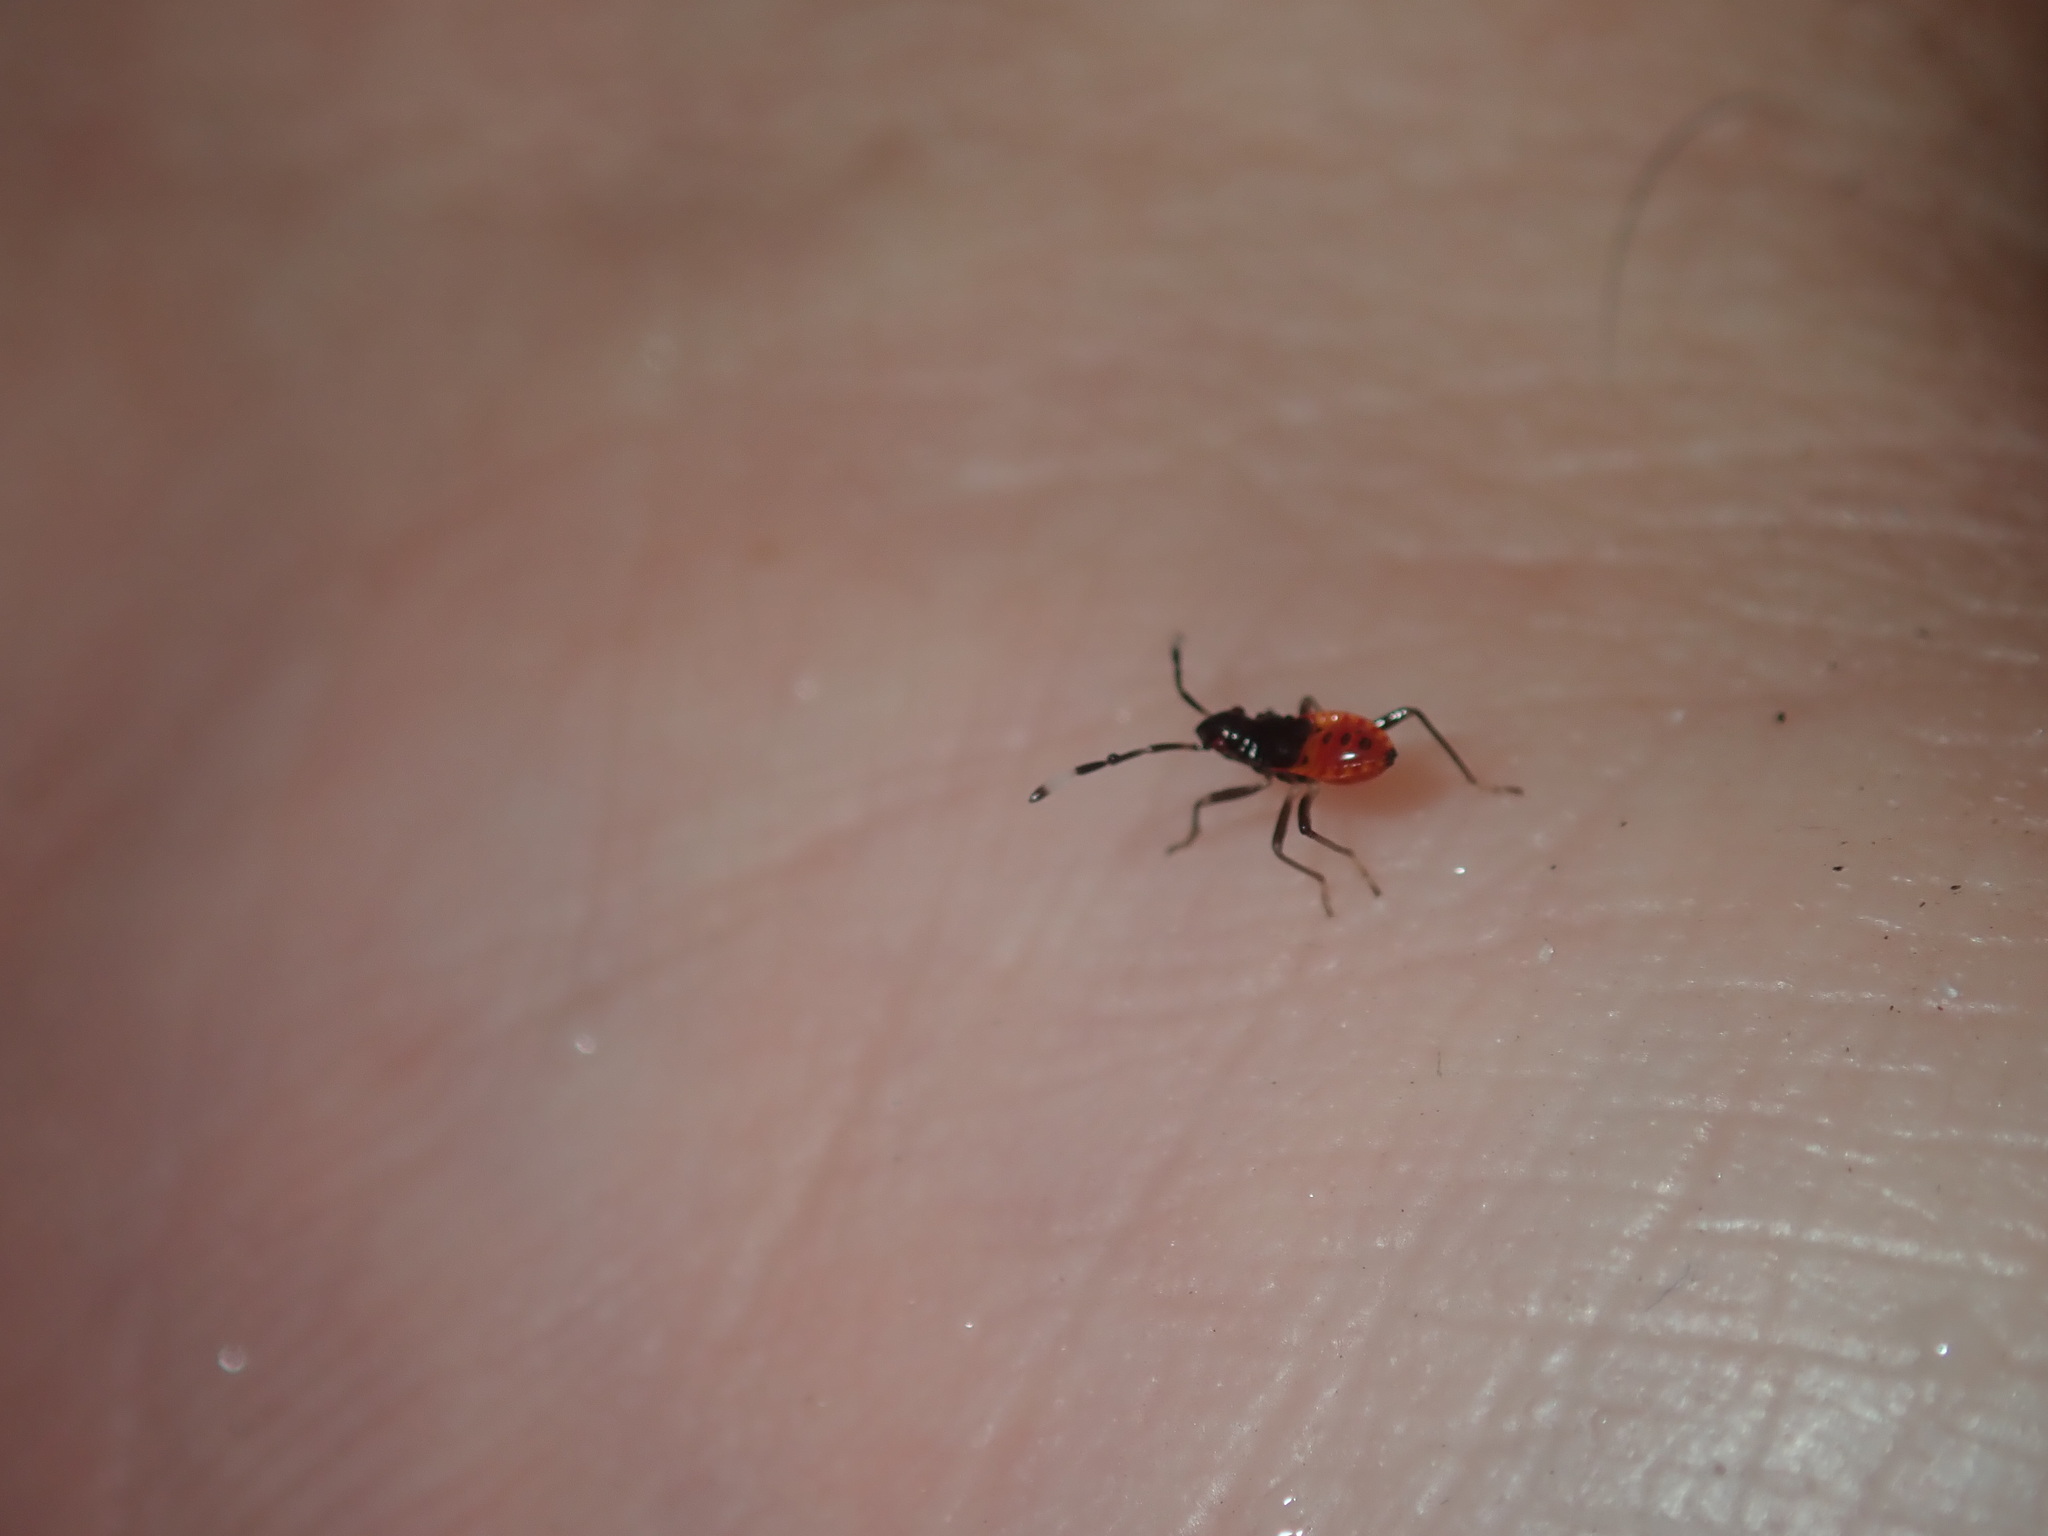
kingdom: Animalia
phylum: Arthropoda
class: Insecta
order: Hemiptera
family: Pyrrhocoridae
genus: Dindymus
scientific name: Dindymus
